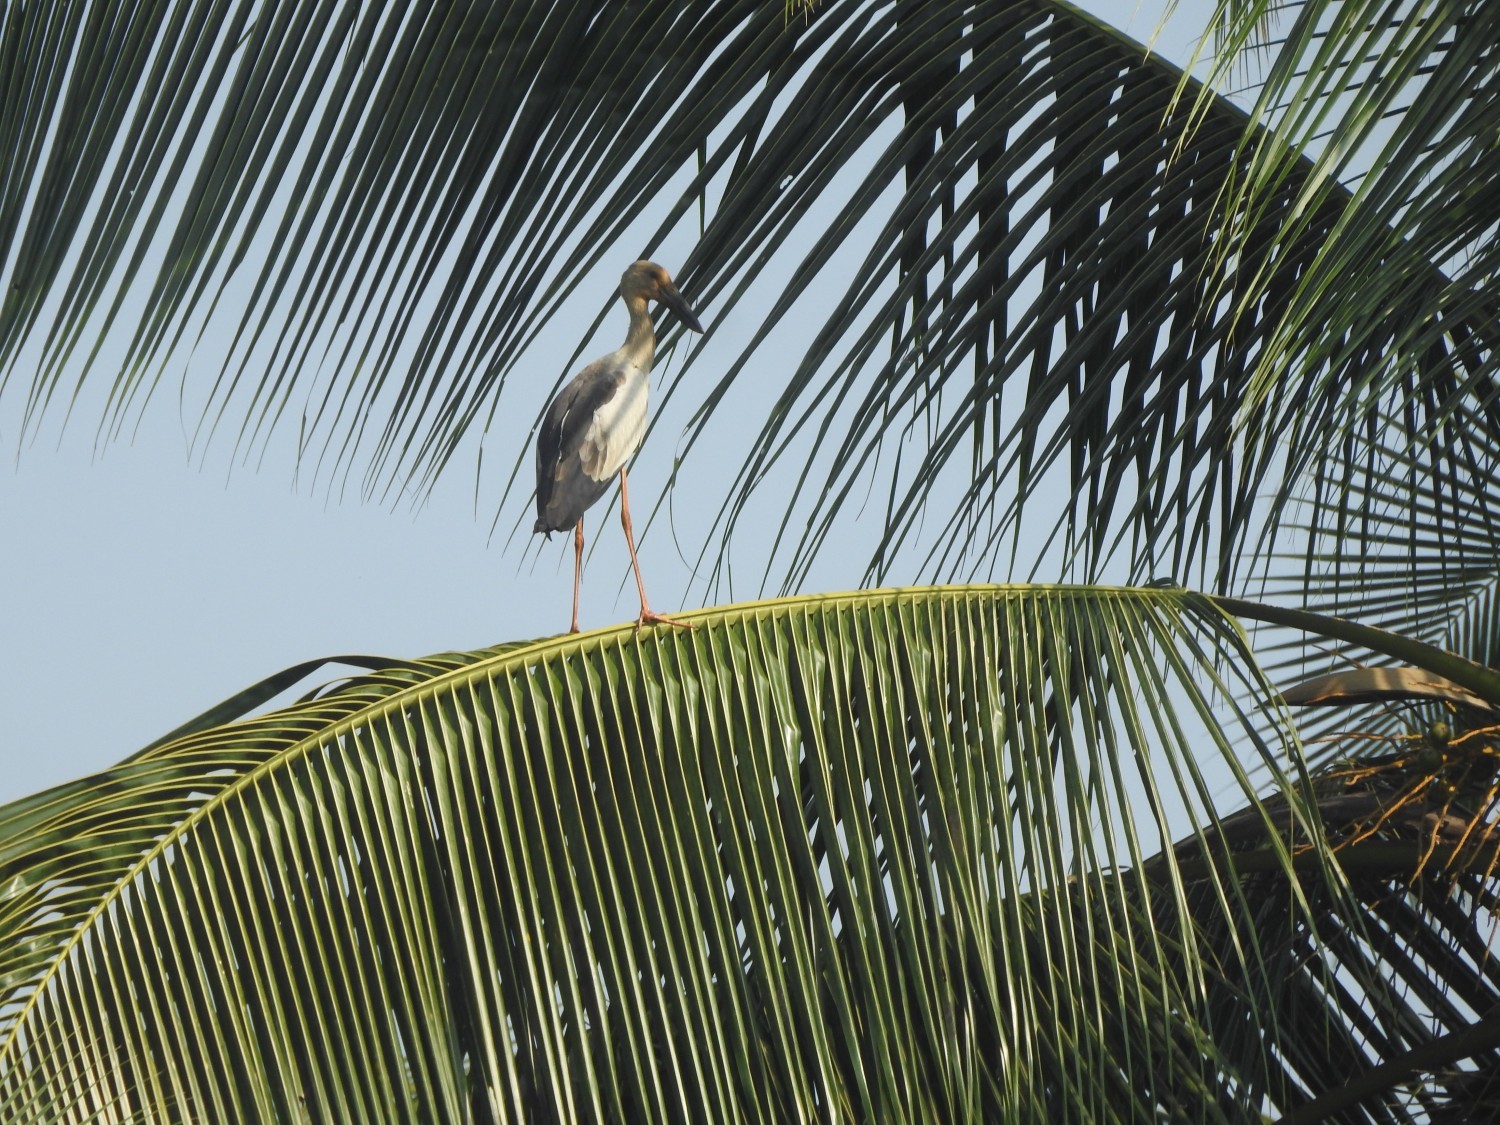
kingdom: Animalia
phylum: Chordata
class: Aves
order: Ciconiiformes
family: Ciconiidae
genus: Anastomus
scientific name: Anastomus oscitans
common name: Asian openbill
